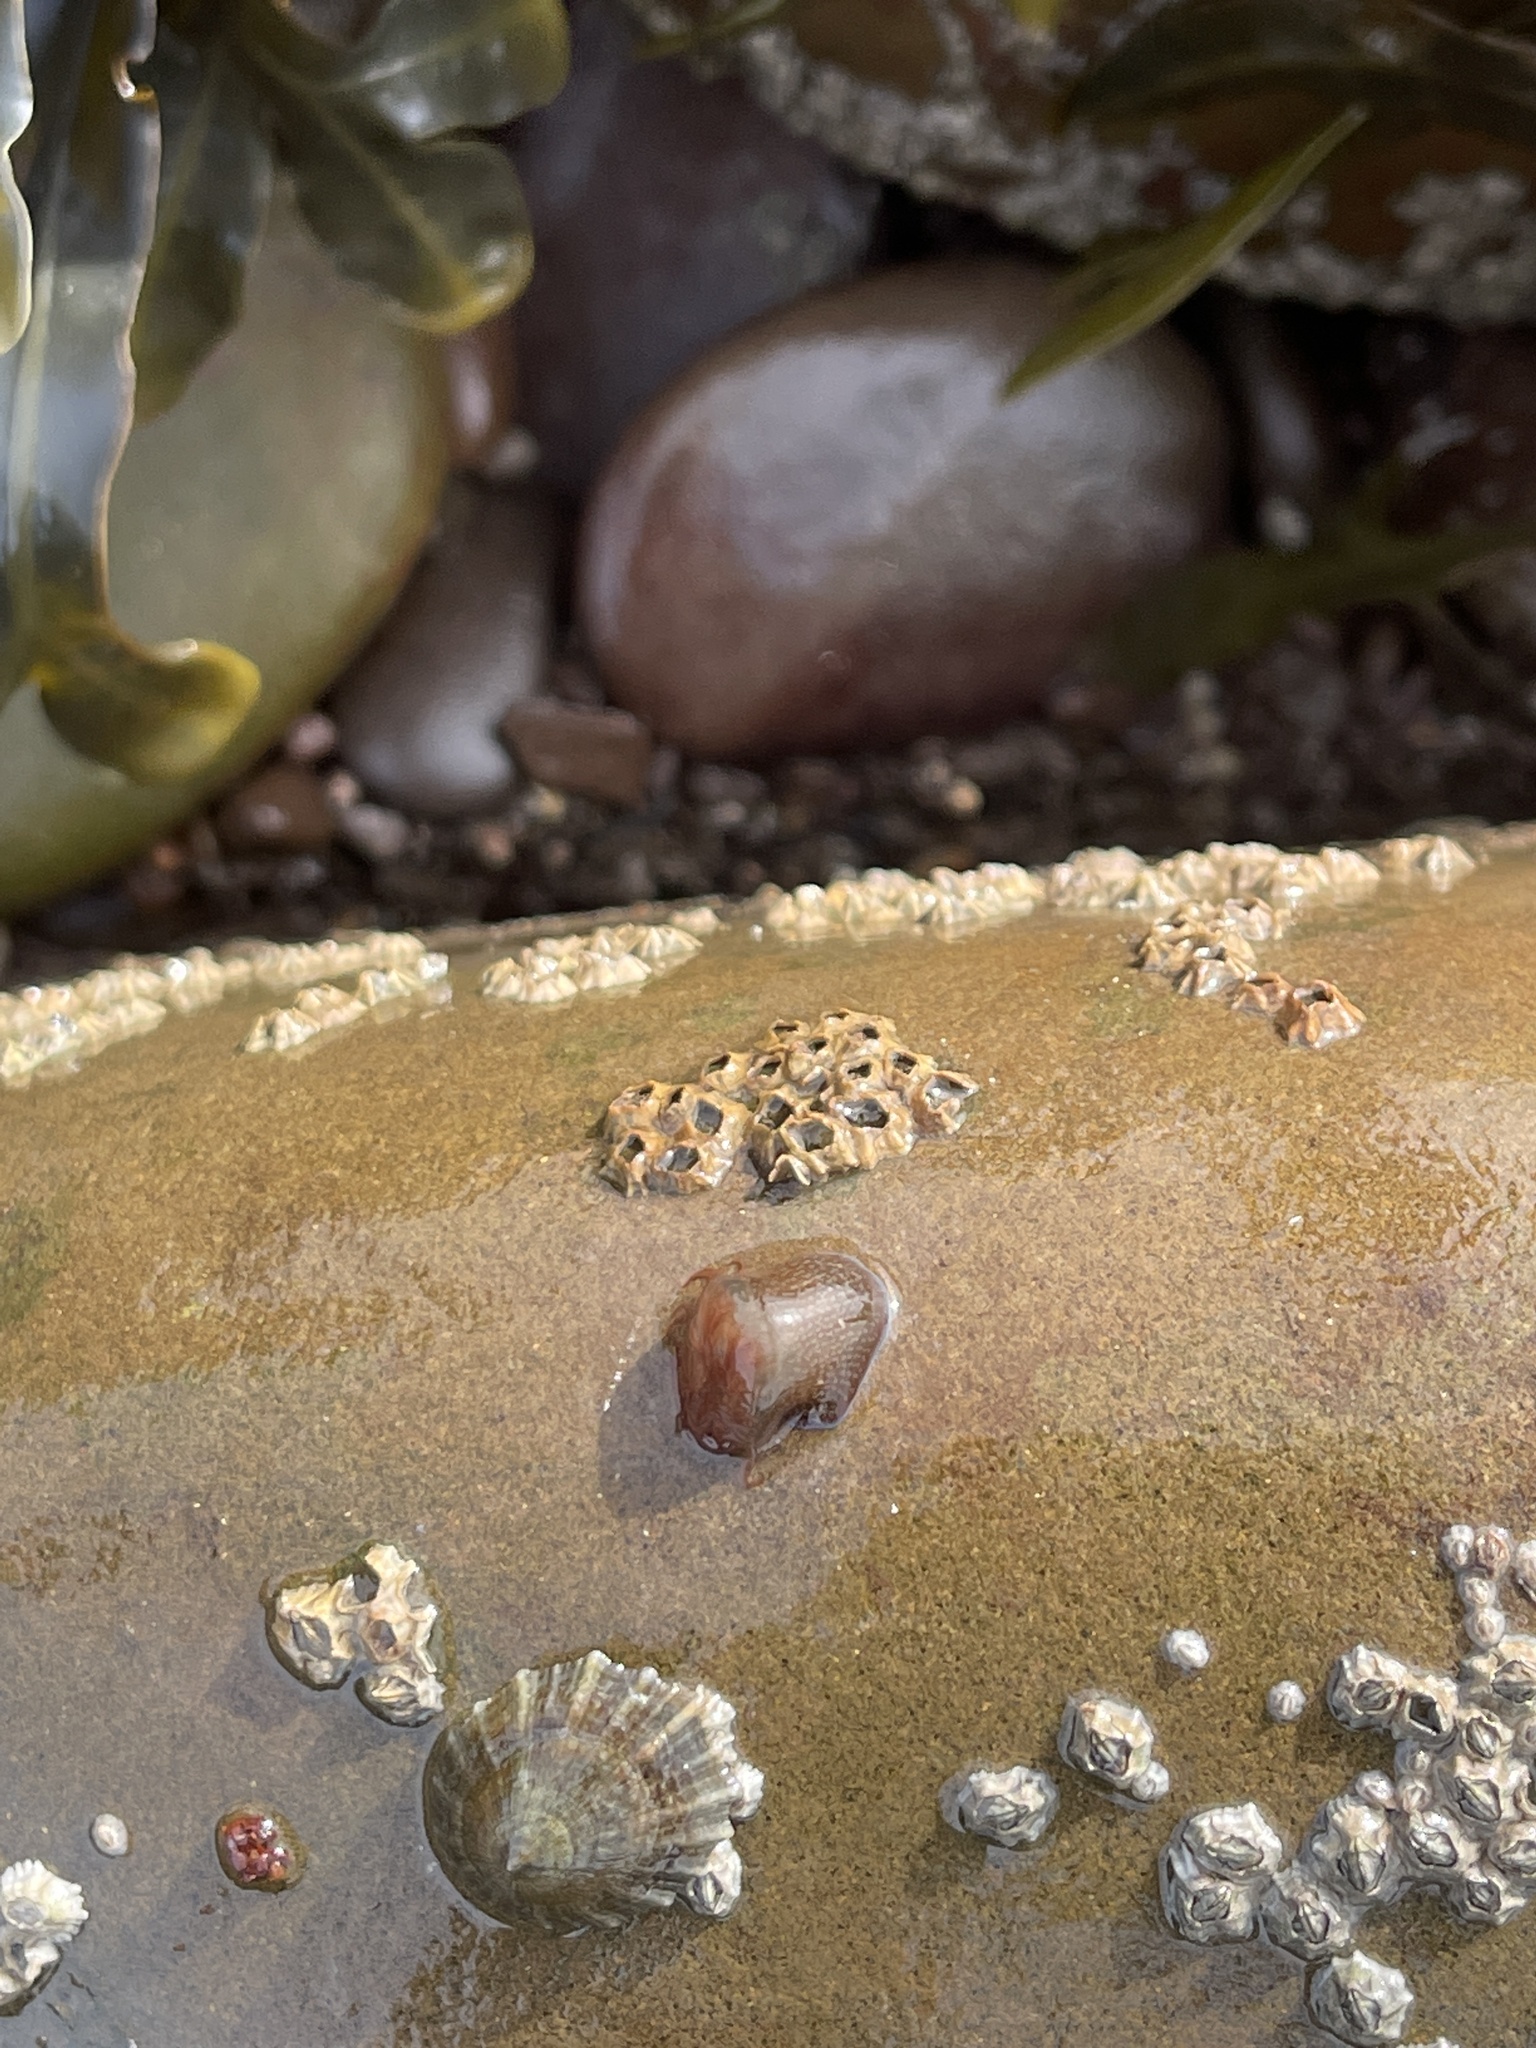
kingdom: Animalia
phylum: Cnidaria
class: Anthozoa
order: Actiniaria
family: Actiniidae
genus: Actinia
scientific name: Actinia equina
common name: Beadlet anemone
